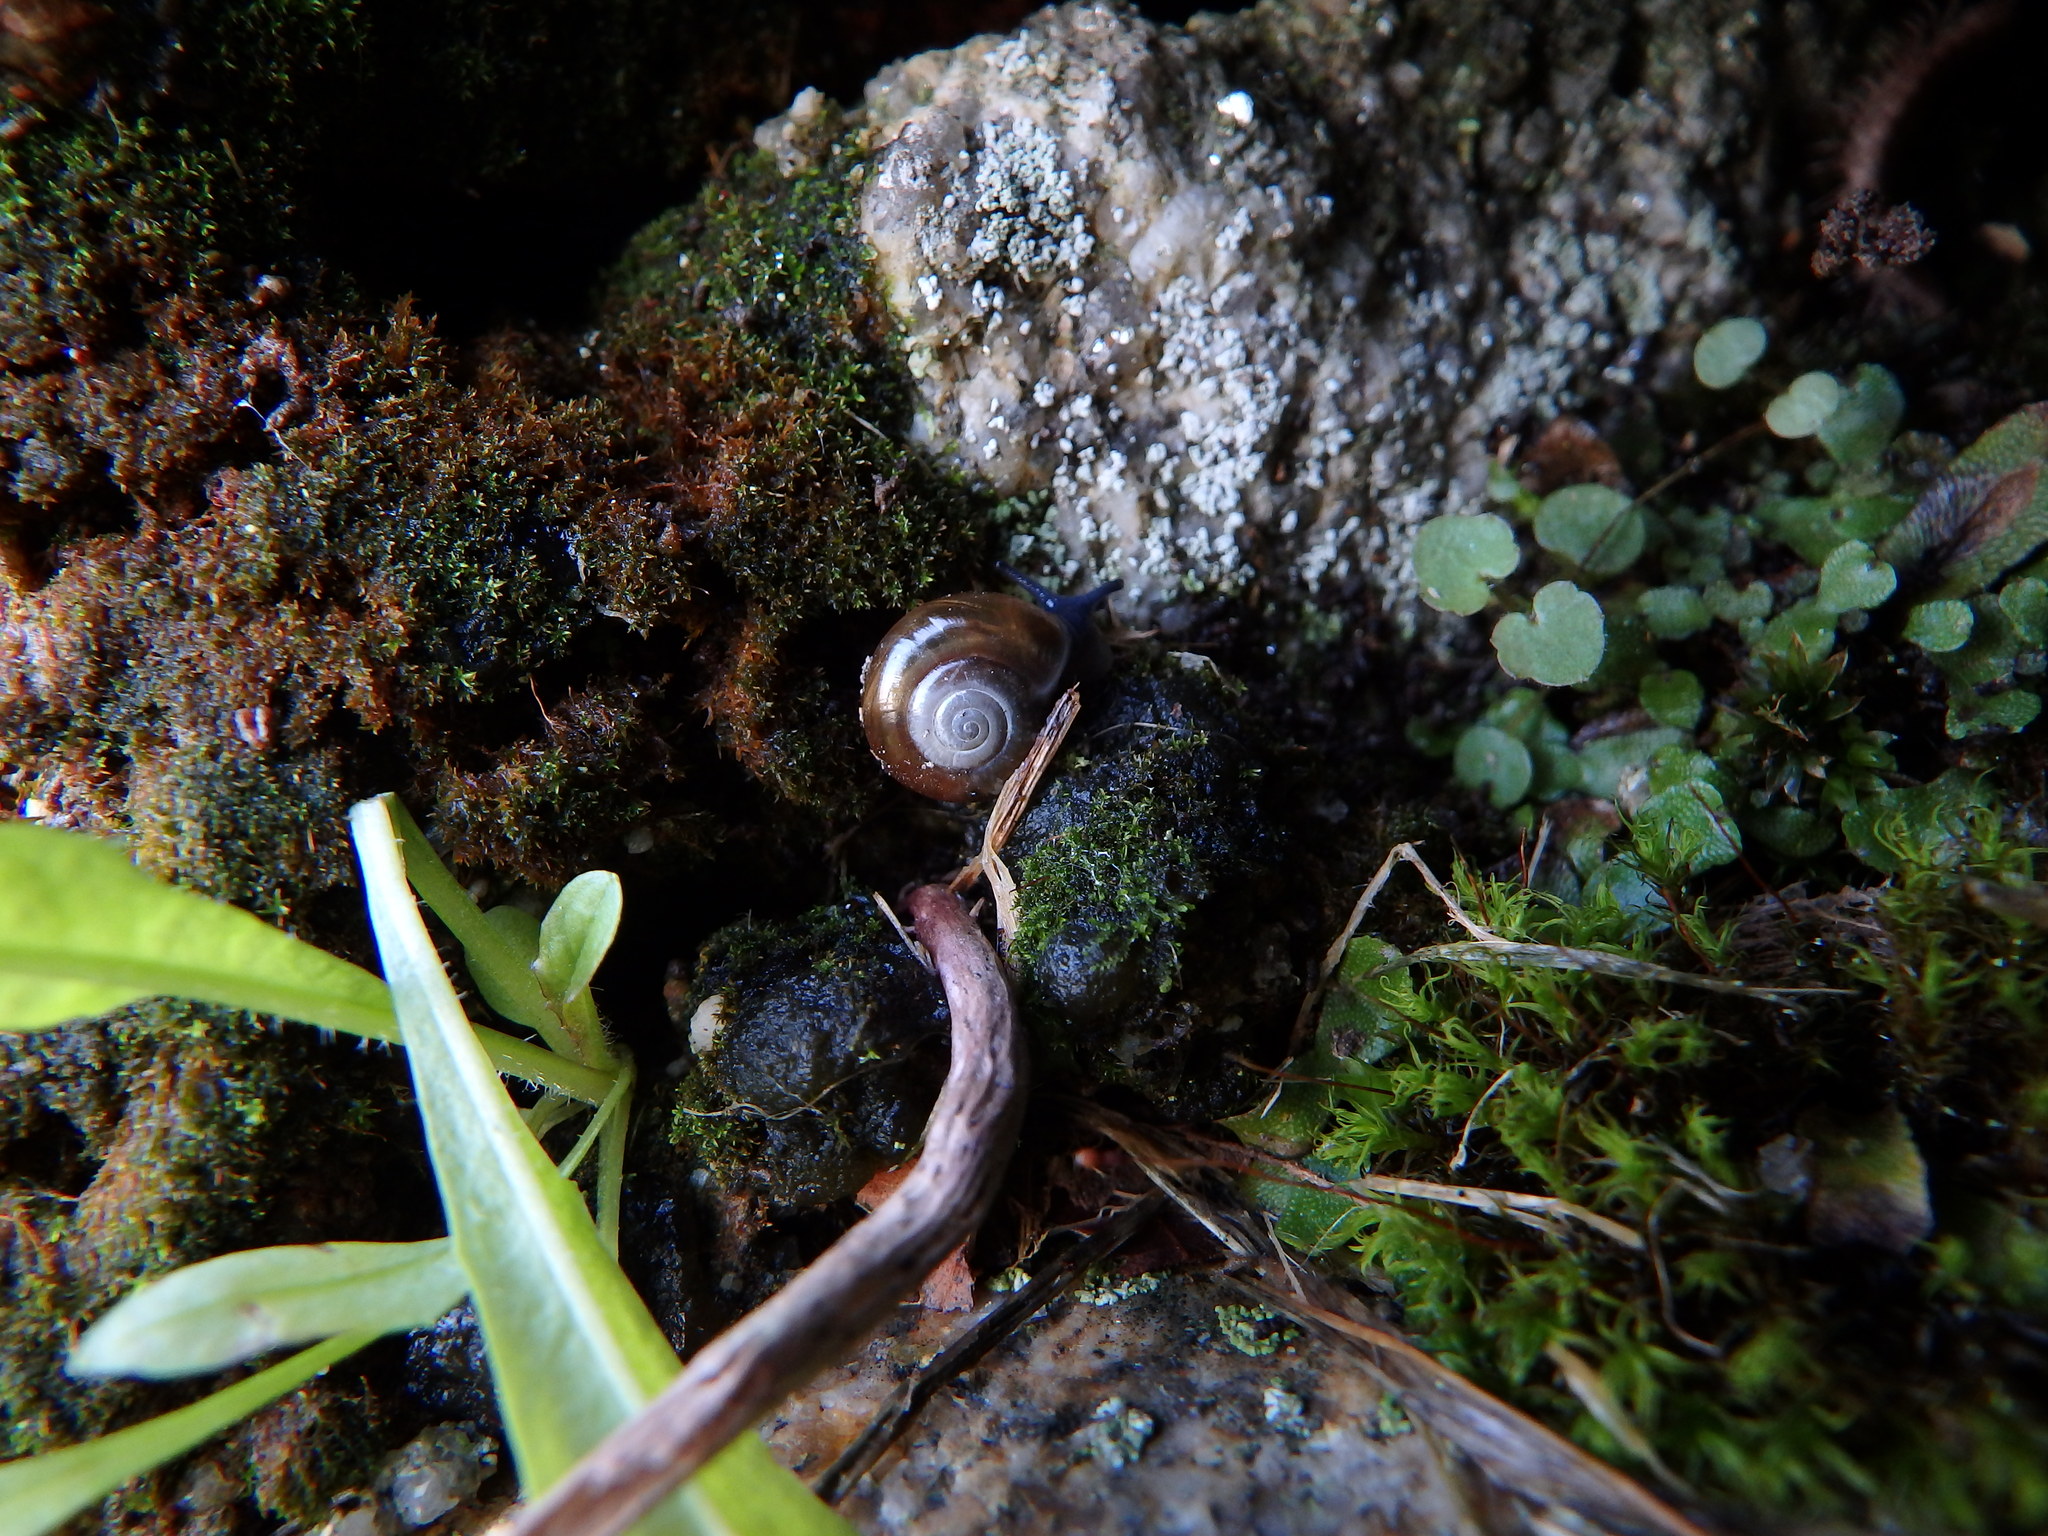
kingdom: Animalia
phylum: Mollusca
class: Gastropoda
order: Stylommatophora
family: Oxychilidae
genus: Oxychilus
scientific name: Oxychilus draparnaudi
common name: Draparnaud's glass snail
